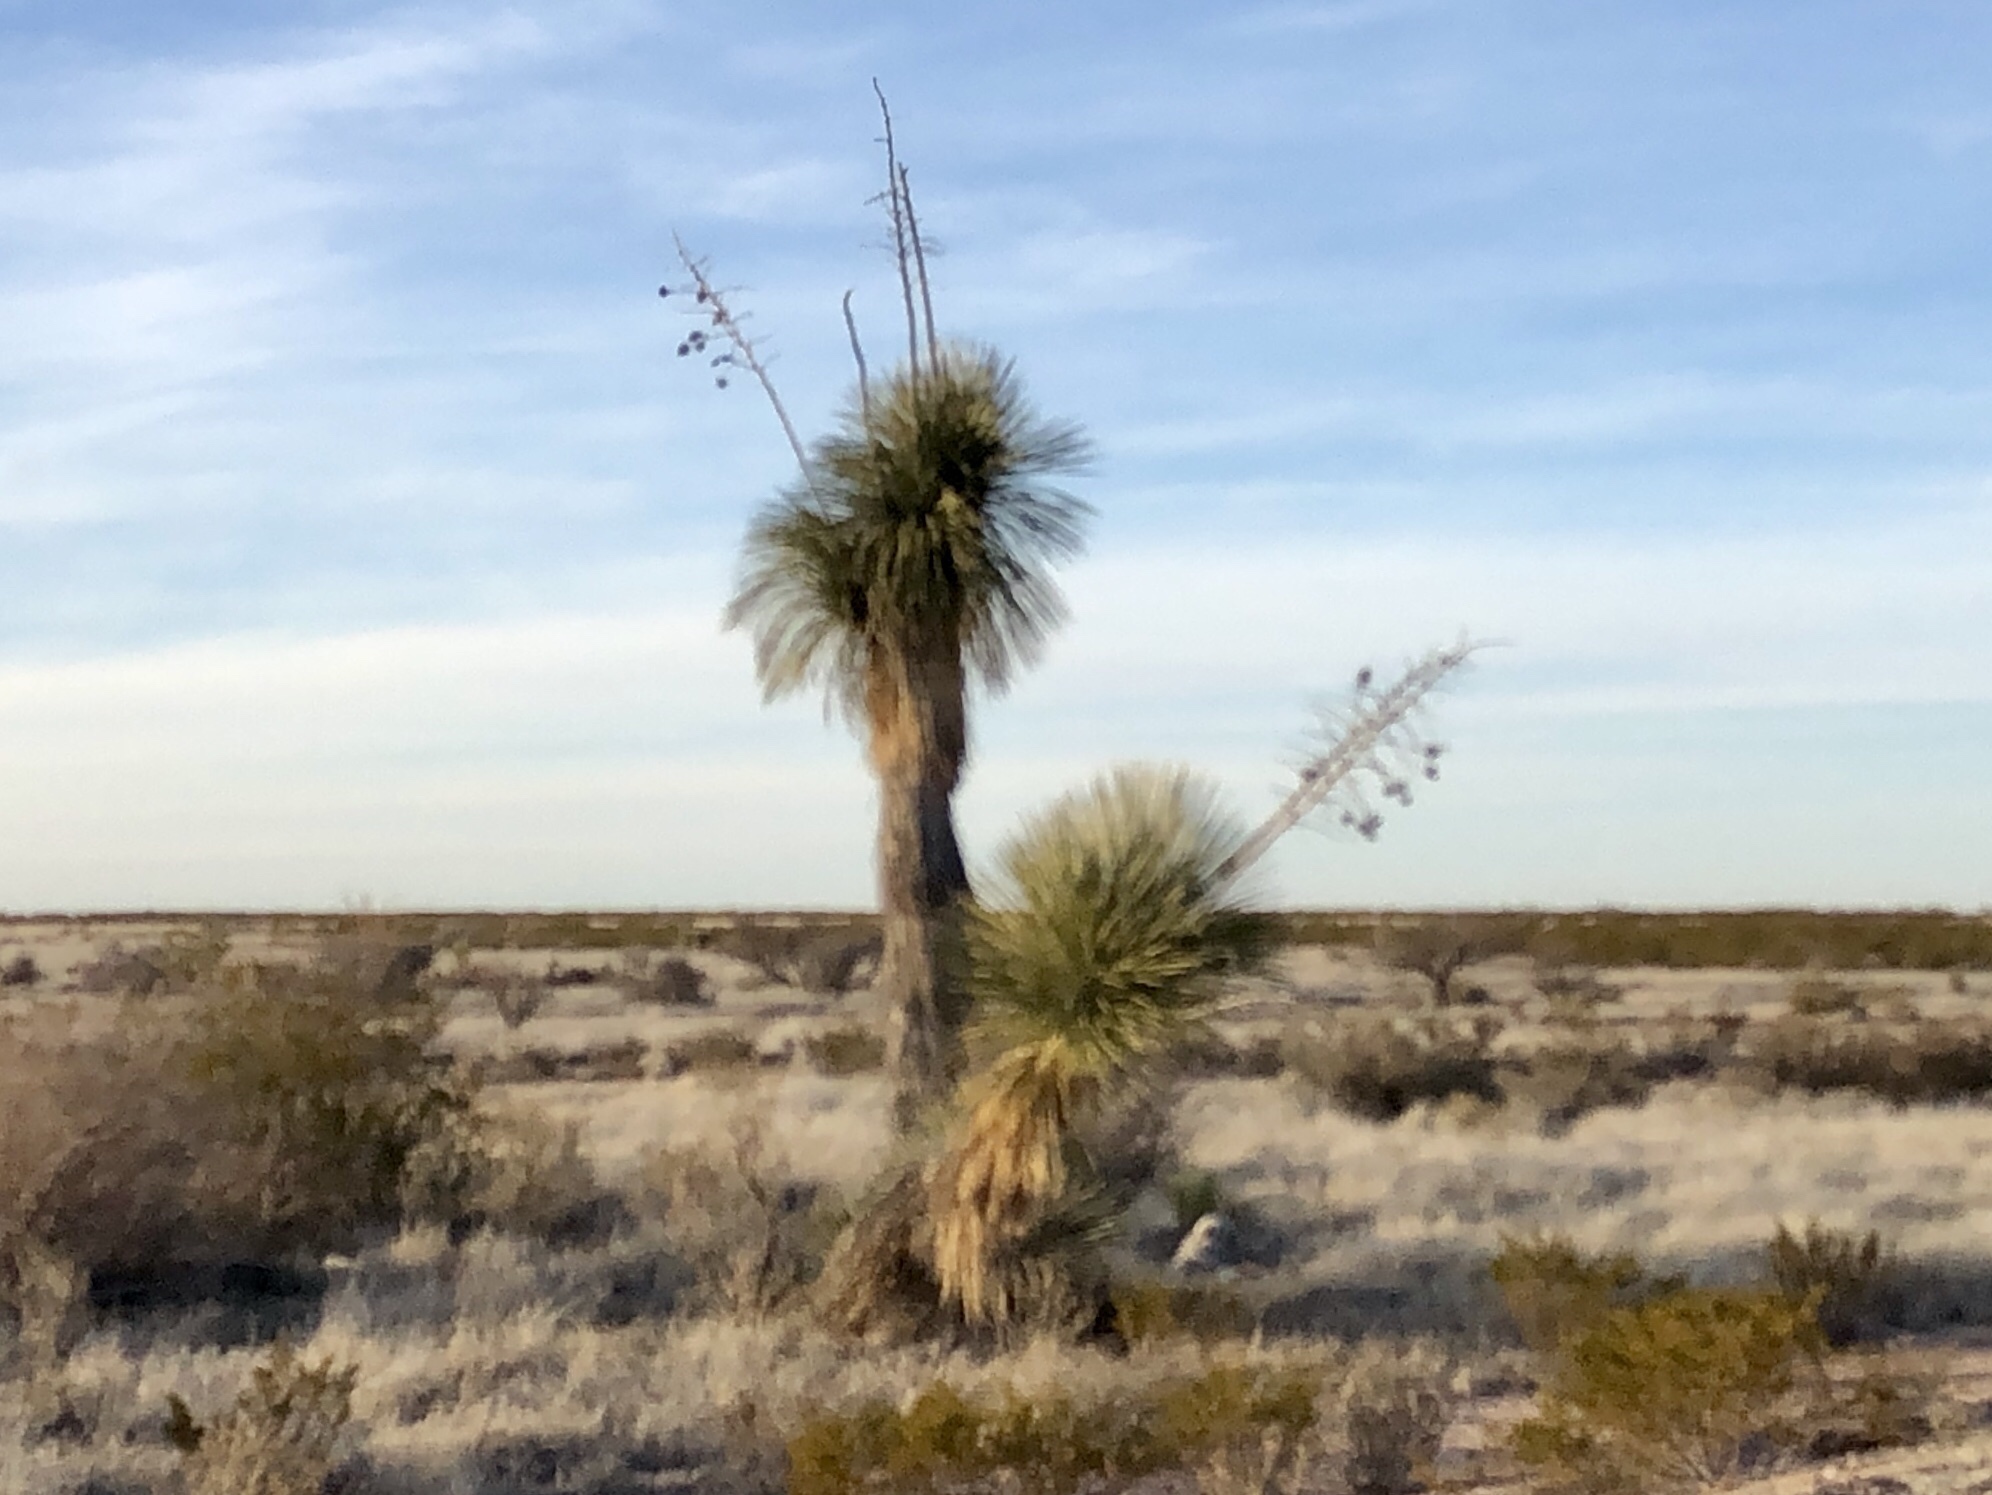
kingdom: Plantae
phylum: Tracheophyta
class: Liliopsida
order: Asparagales
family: Asparagaceae
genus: Yucca
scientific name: Yucca elata
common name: Palmella
